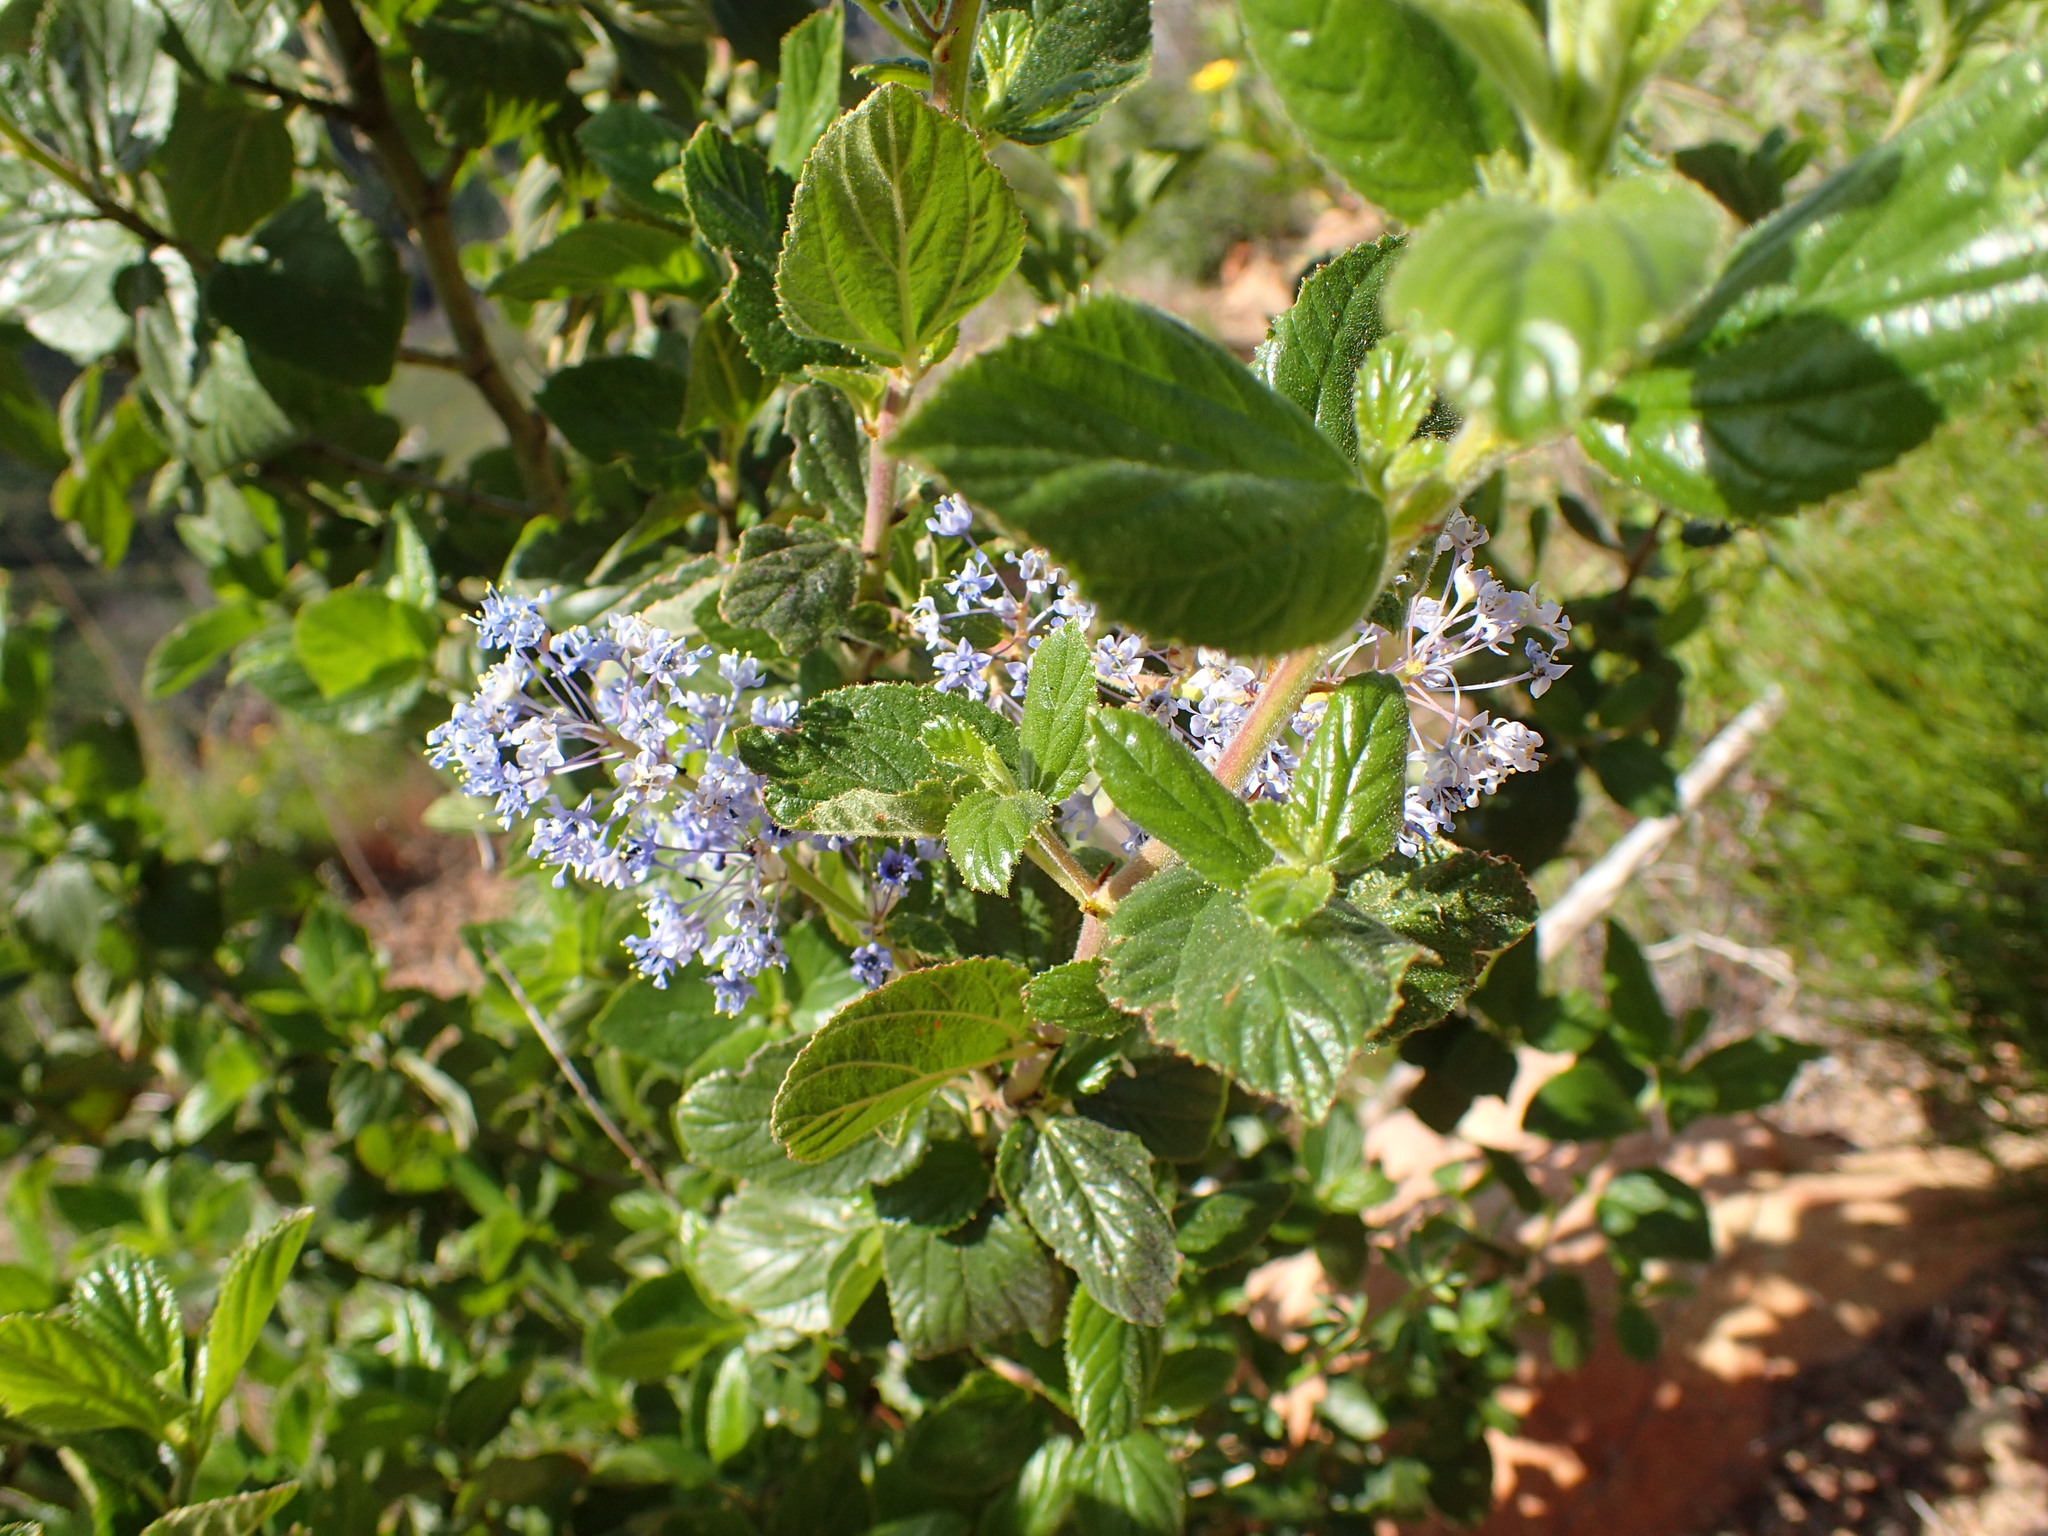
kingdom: Plantae
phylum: Tracheophyta
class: Magnoliopsida
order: Rosales
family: Rhamnaceae
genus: Ceanothus
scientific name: Ceanothus oliganthus
